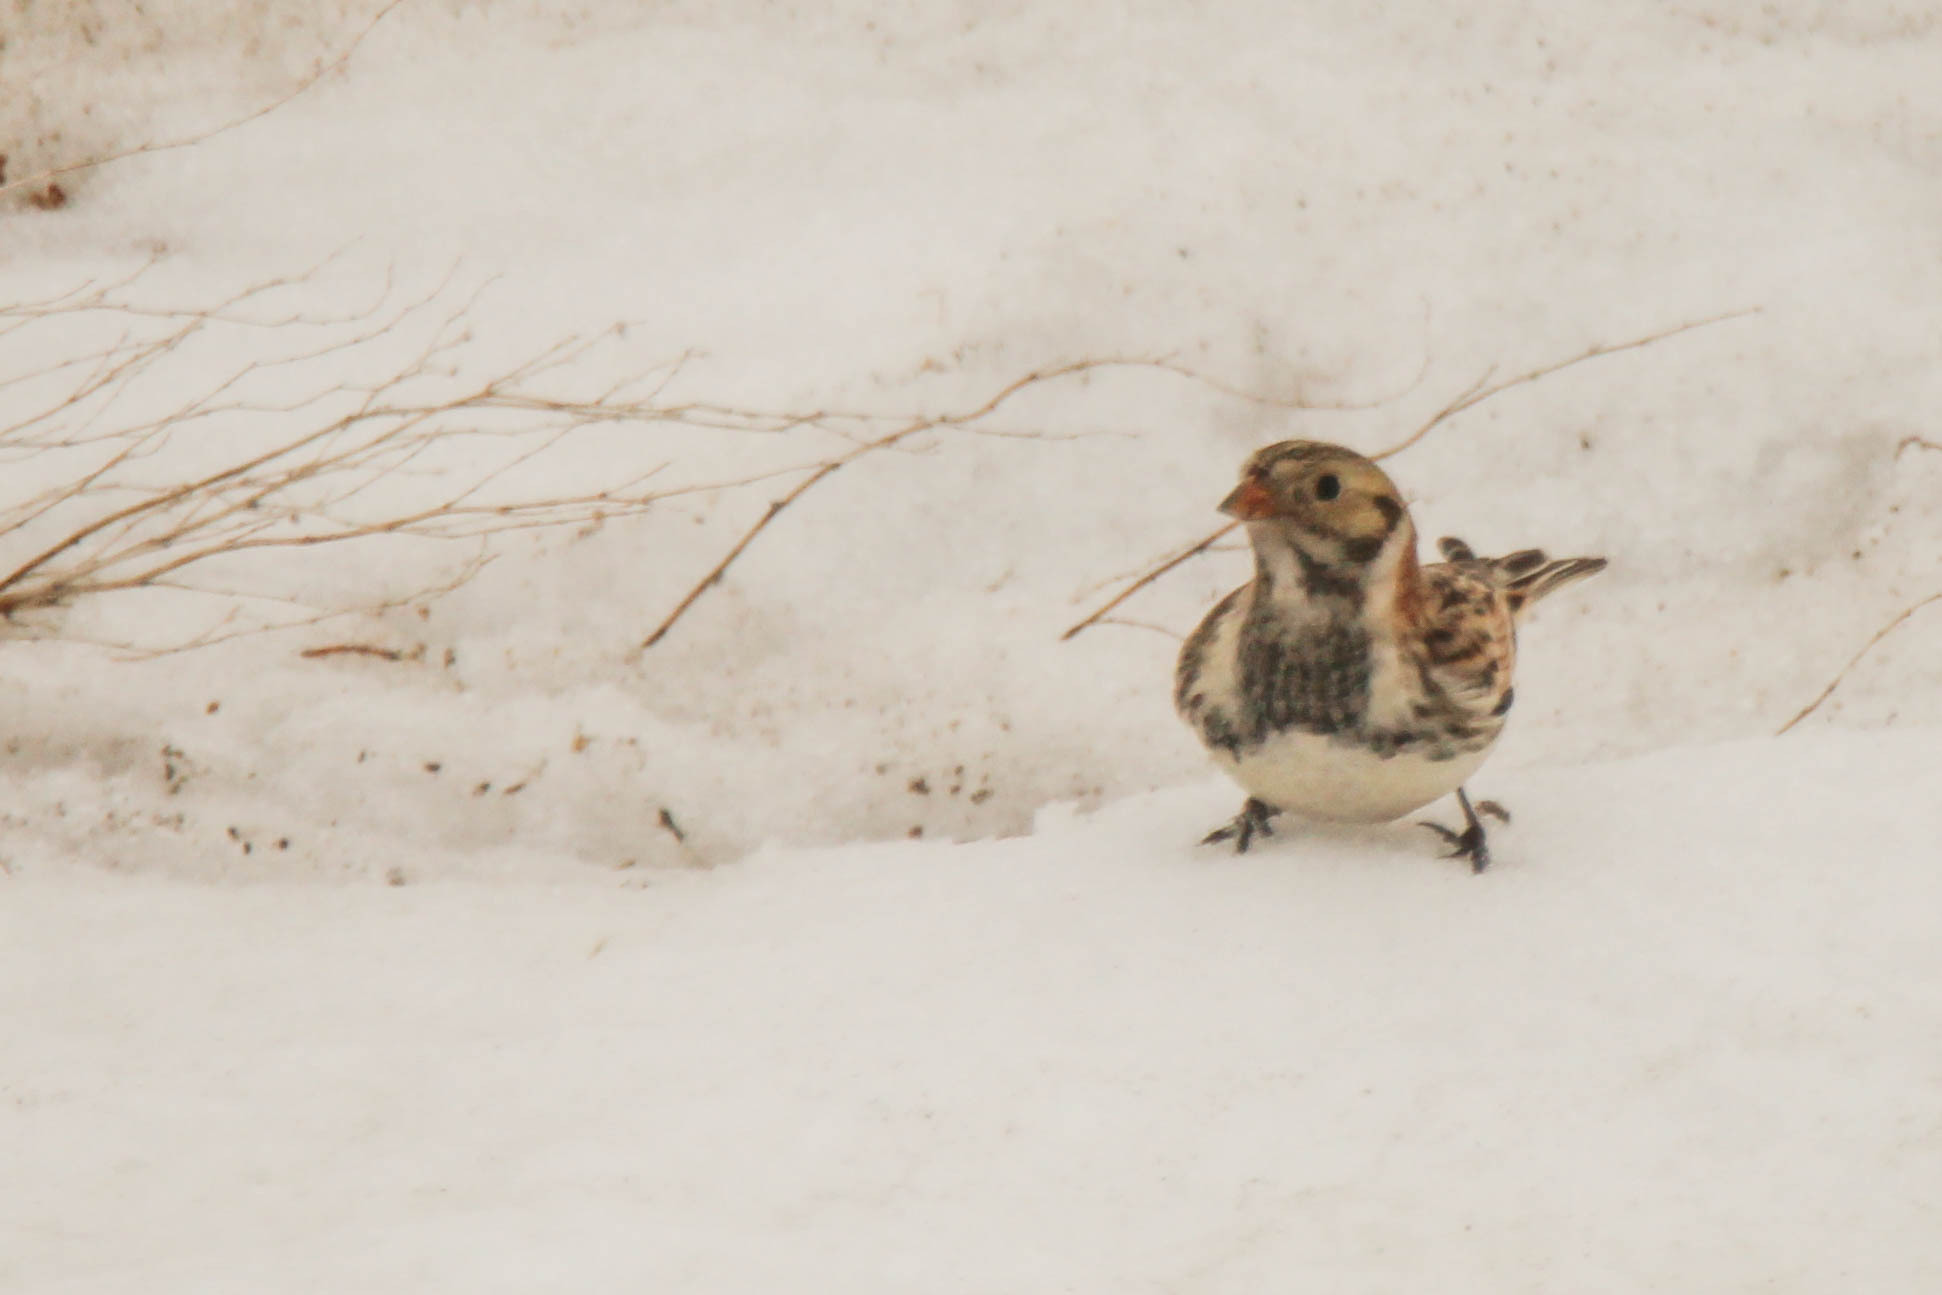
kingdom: Animalia
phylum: Chordata
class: Aves
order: Passeriformes
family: Calcariidae
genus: Calcarius
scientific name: Calcarius lapponicus
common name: Lapland longspur
